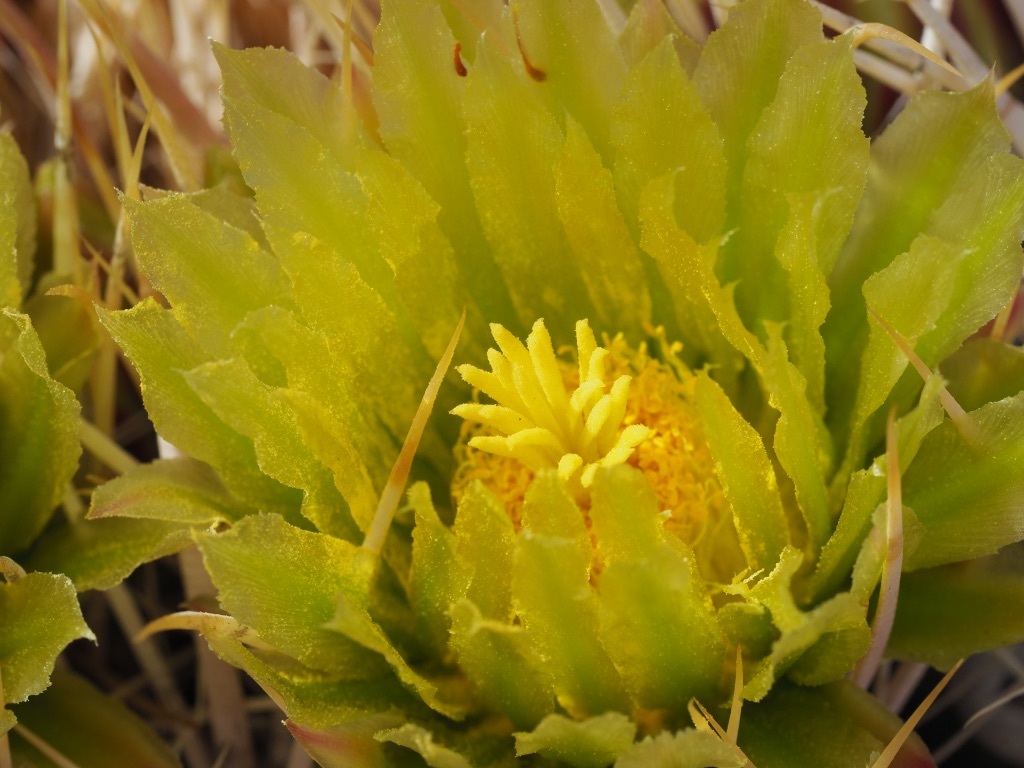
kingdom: Plantae
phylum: Tracheophyta
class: Magnoliopsida
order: Caryophyllales
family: Cactaceae
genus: Ferocactus
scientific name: Ferocactus cylindraceus
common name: California barrel cactus
